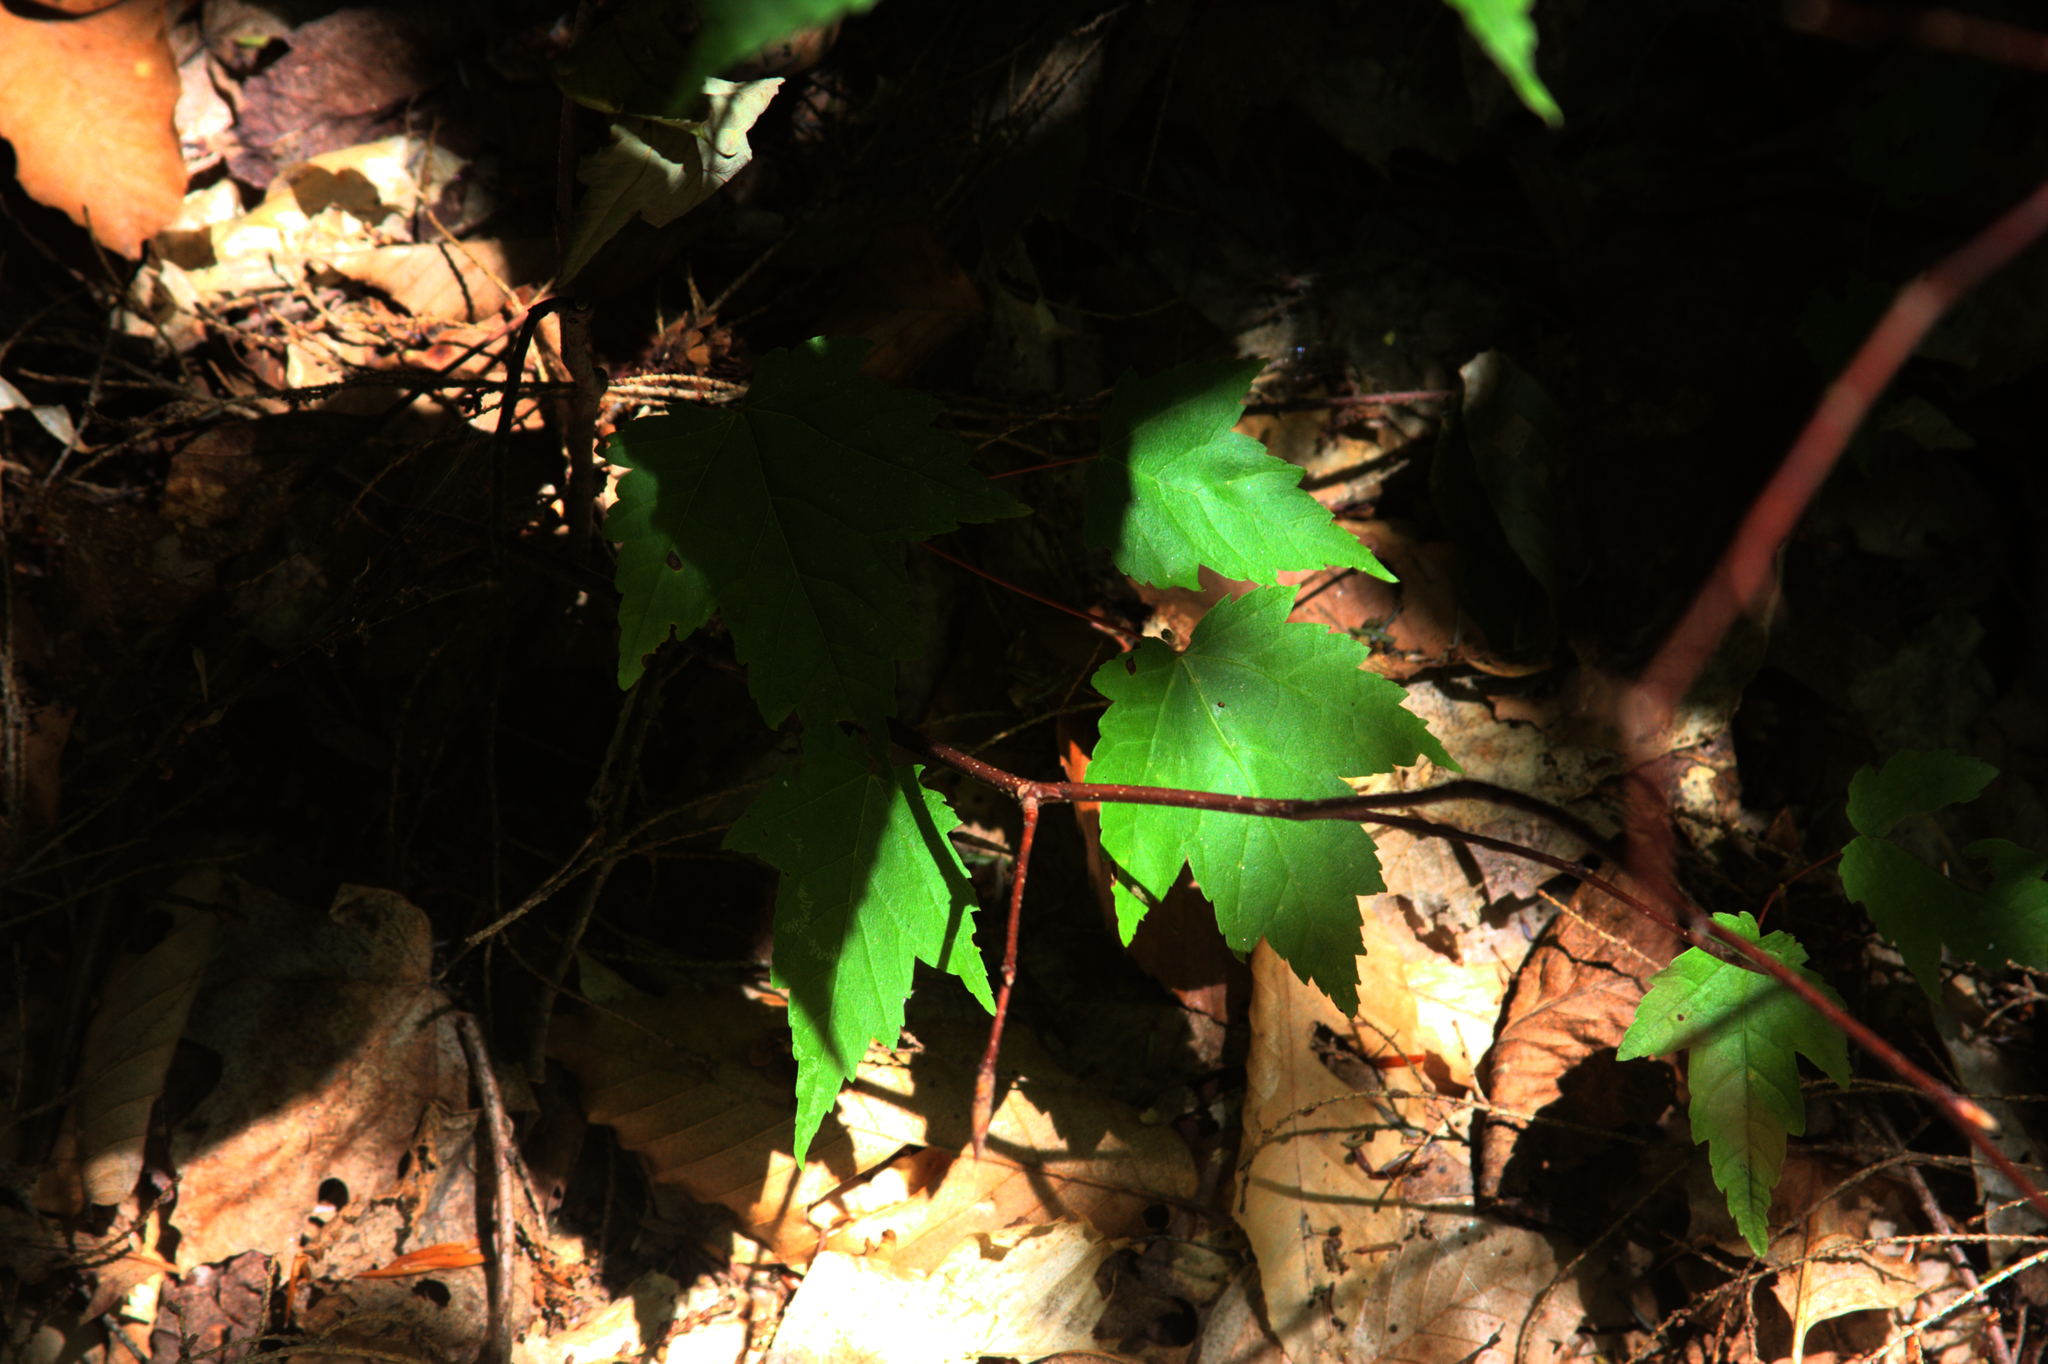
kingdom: Plantae
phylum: Tracheophyta
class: Magnoliopsida
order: Sapindales
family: Sapindaceae
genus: Acer
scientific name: Acer rubrum
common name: Red maple
